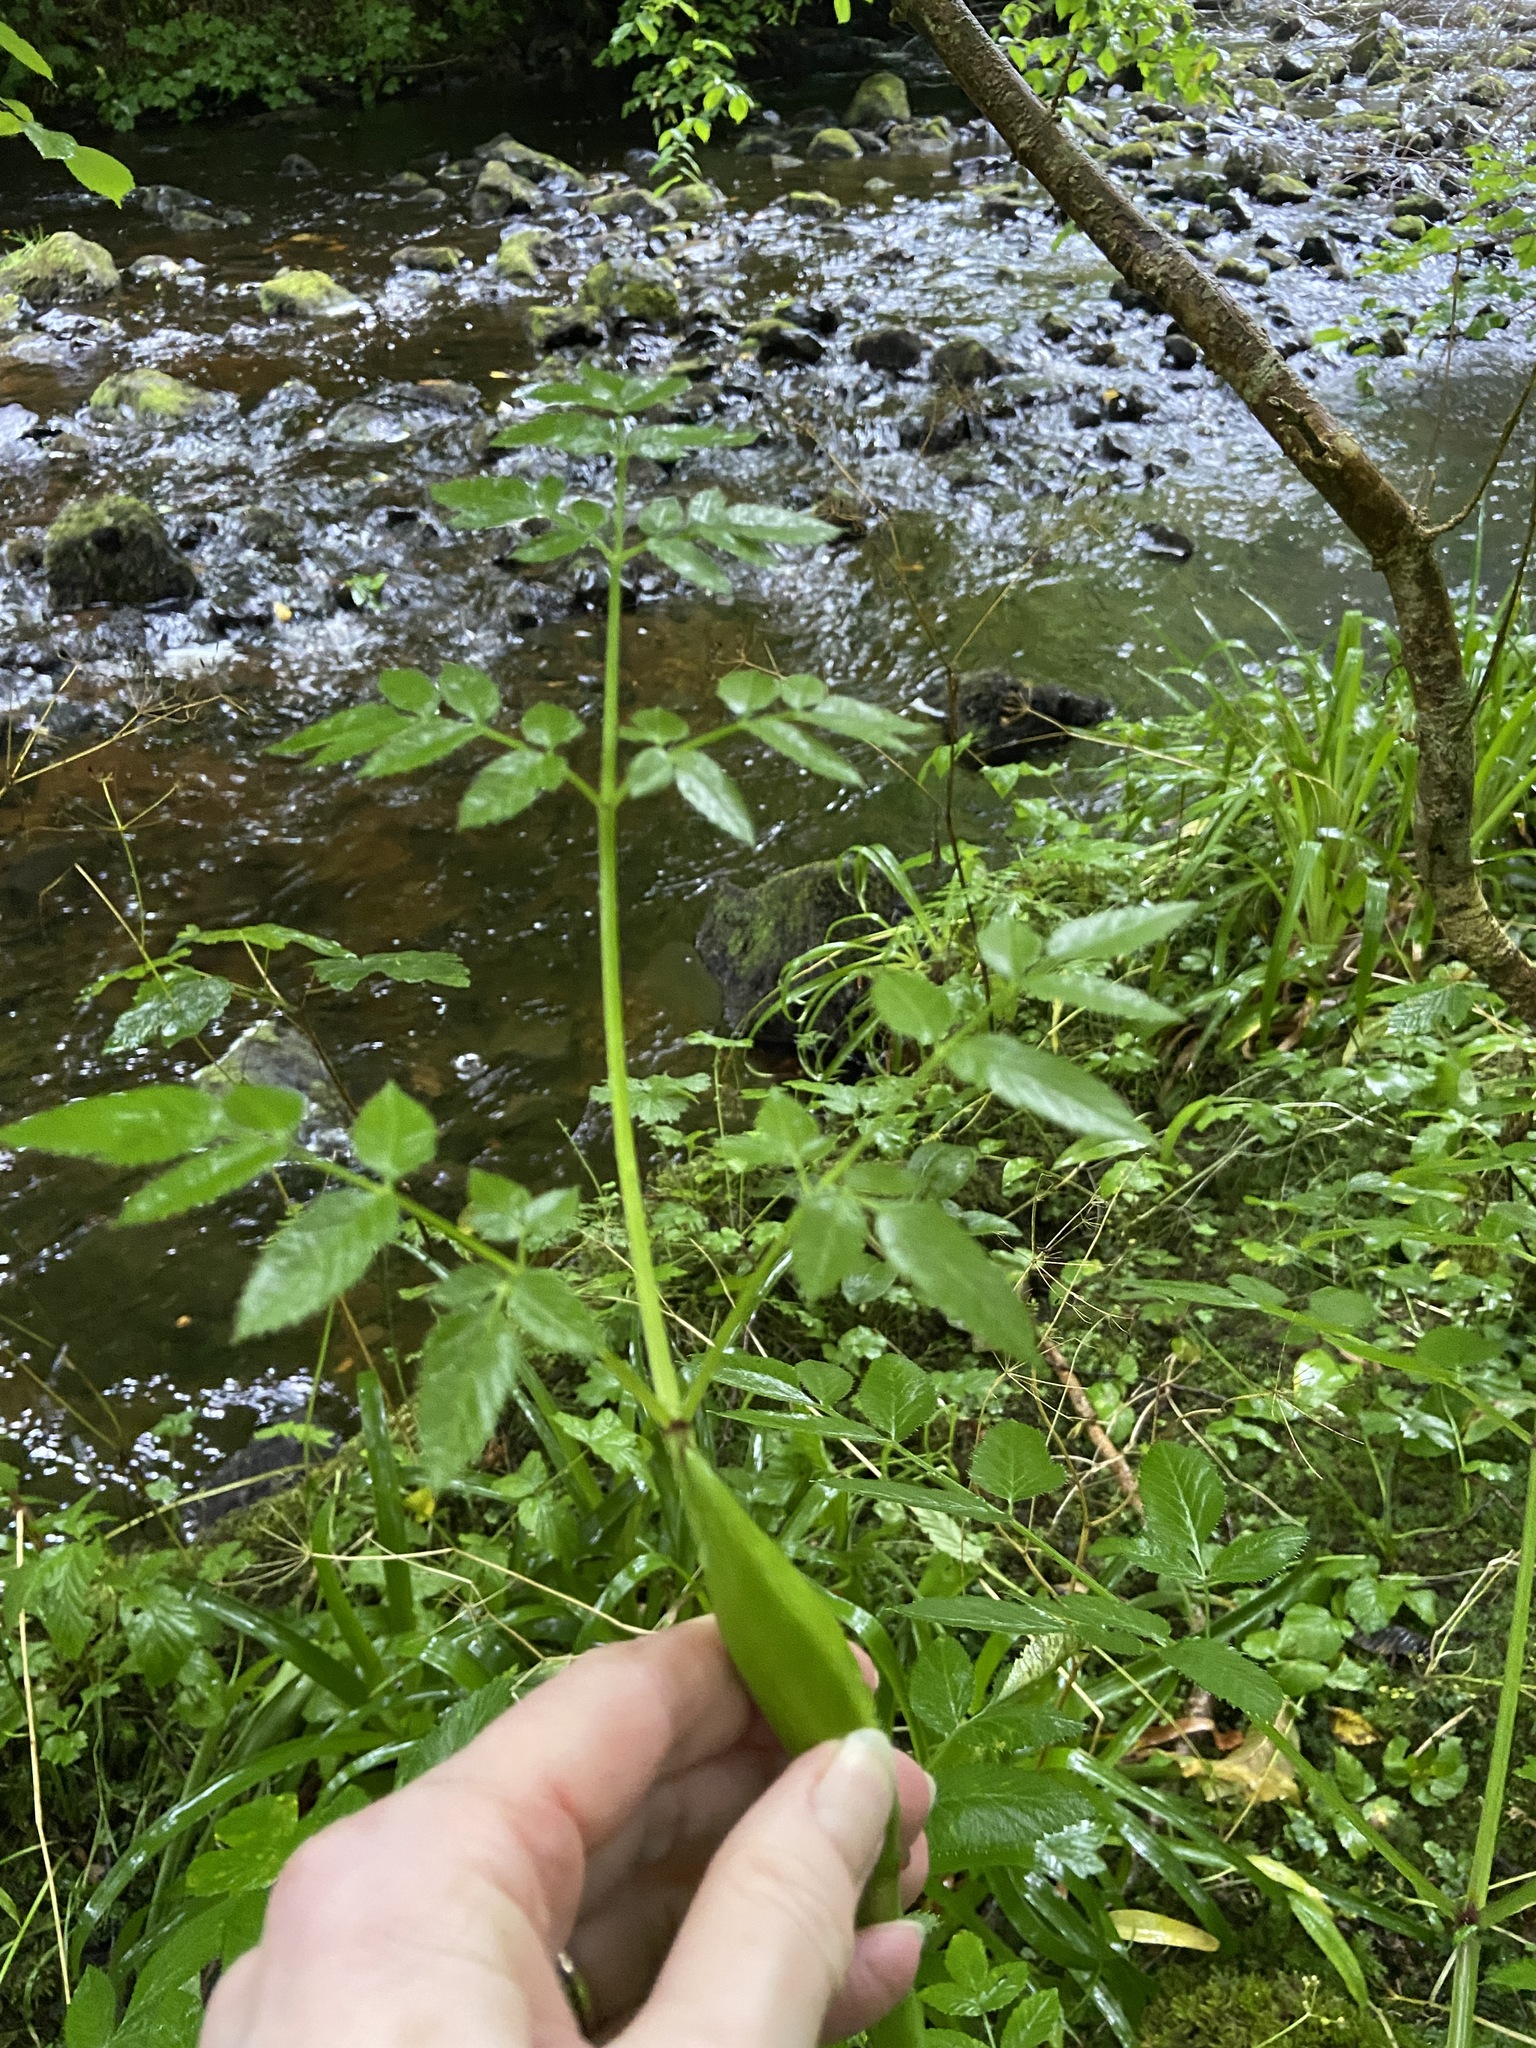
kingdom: Plantae
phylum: Tracheophyta
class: Magnoliopsida
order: Apiales
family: Apiaceae
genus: Angelica
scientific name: Angelica sylvestris
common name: Wild angelica
